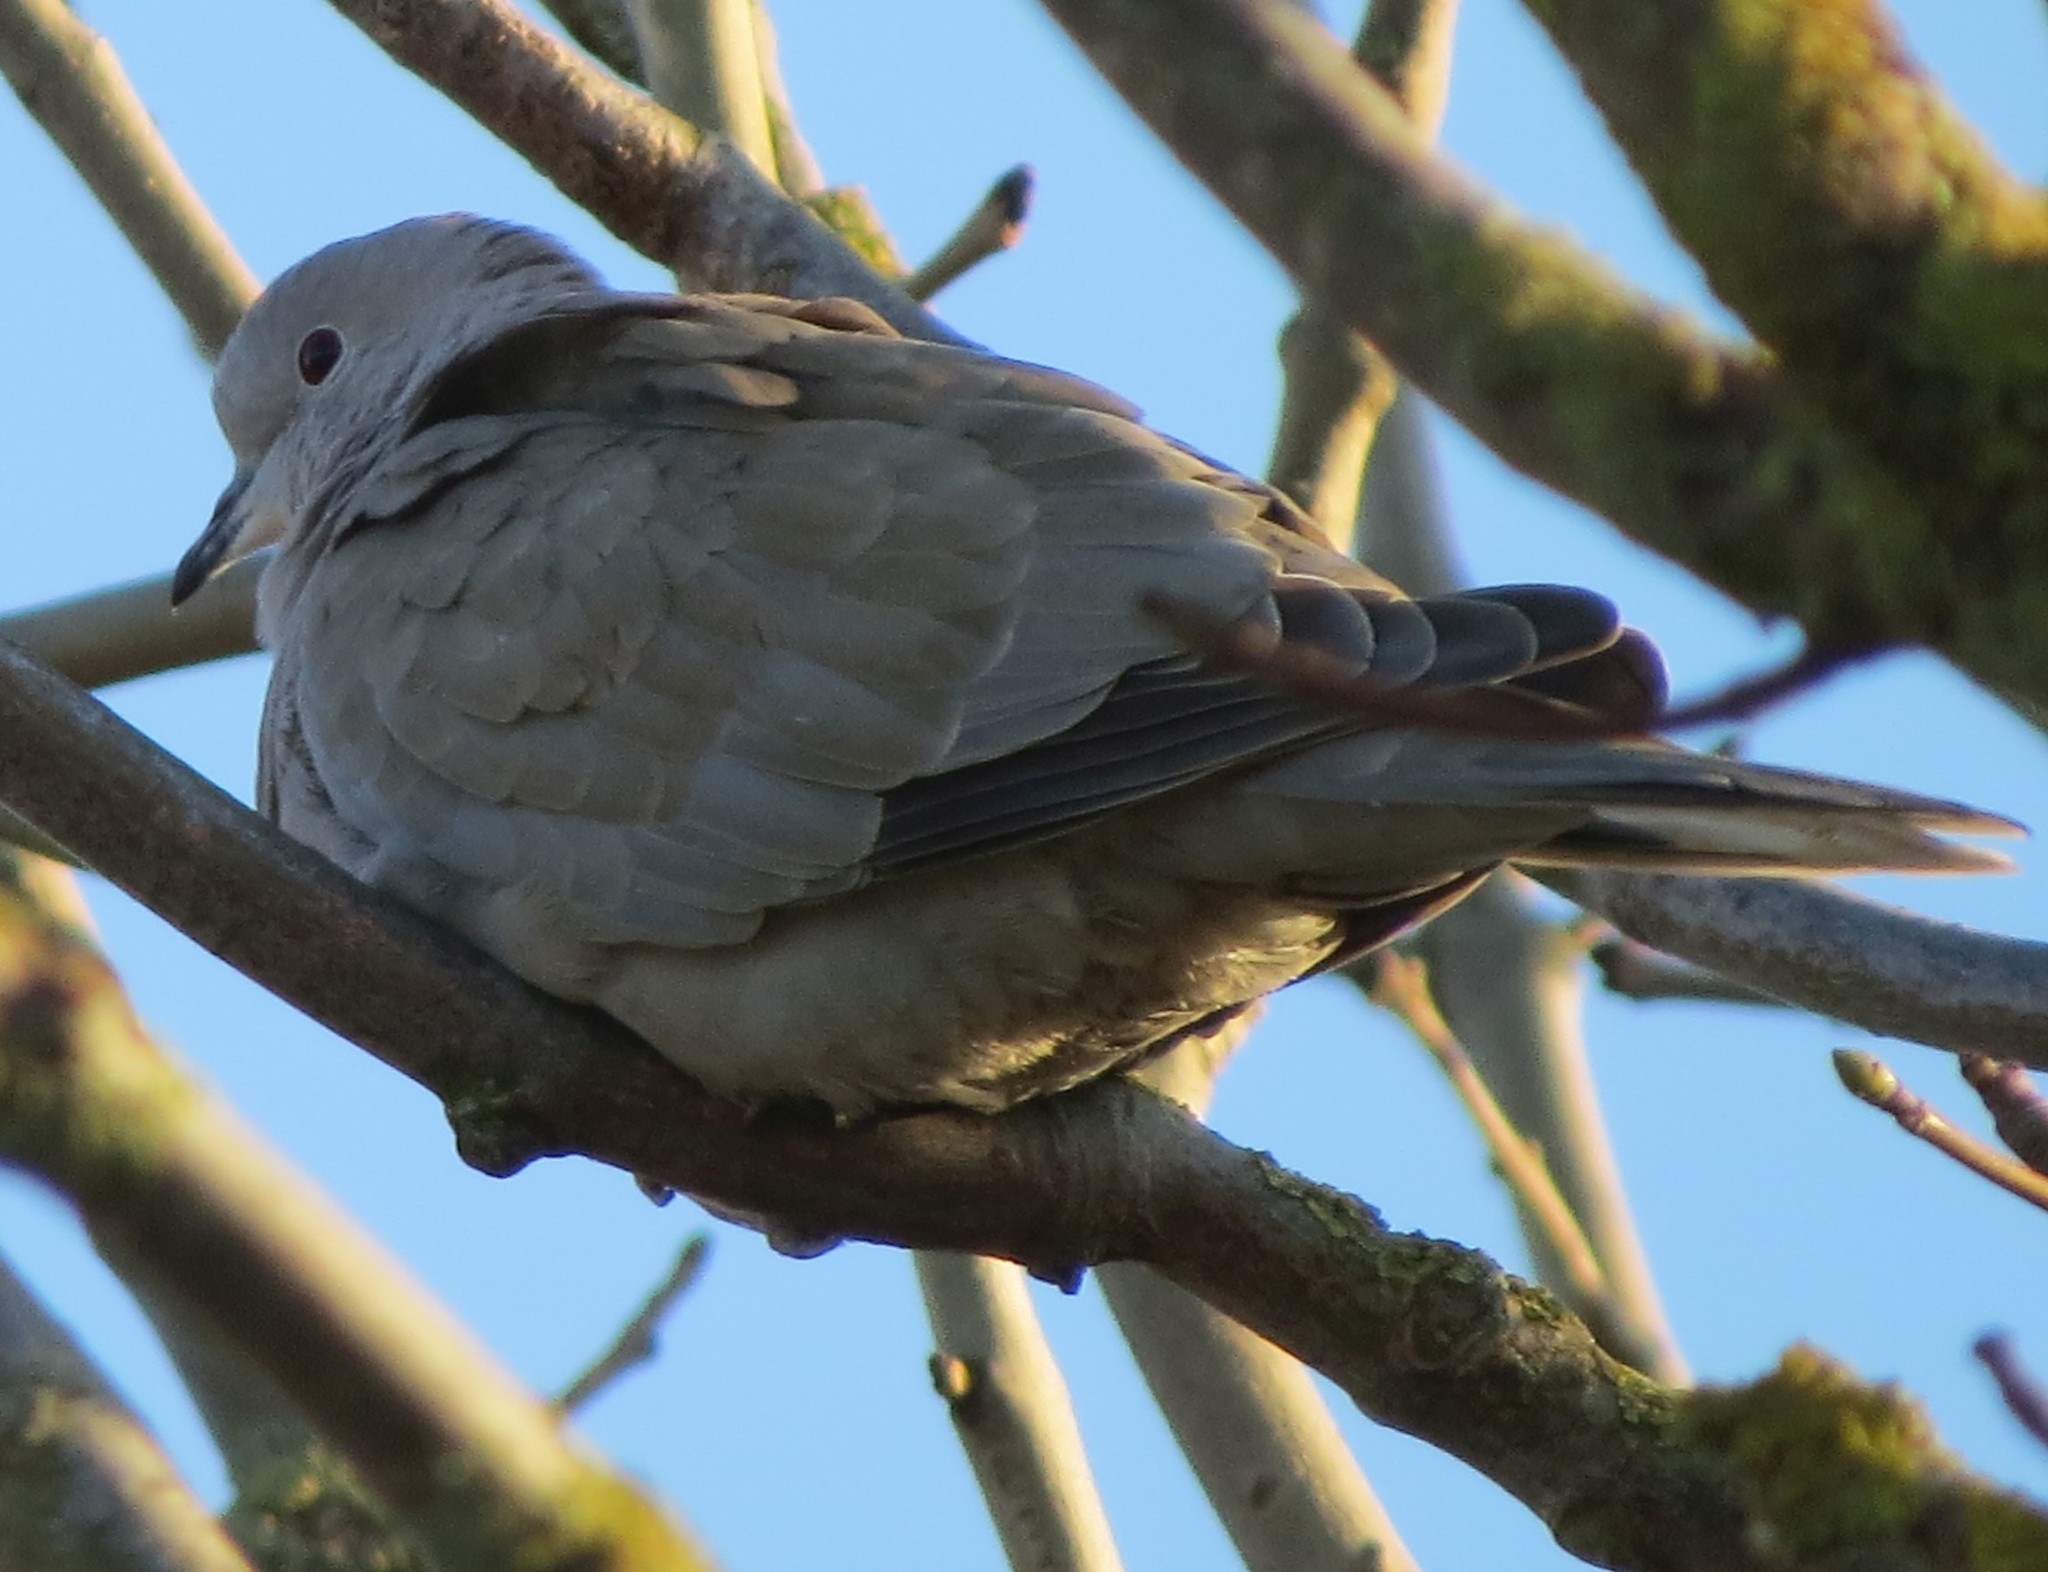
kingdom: Animalia
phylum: Chordata
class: Aves
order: Columbiformes
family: Columbidae
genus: Streptopelia
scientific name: Streptopelia decaocto
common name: Eurasian collared dove
